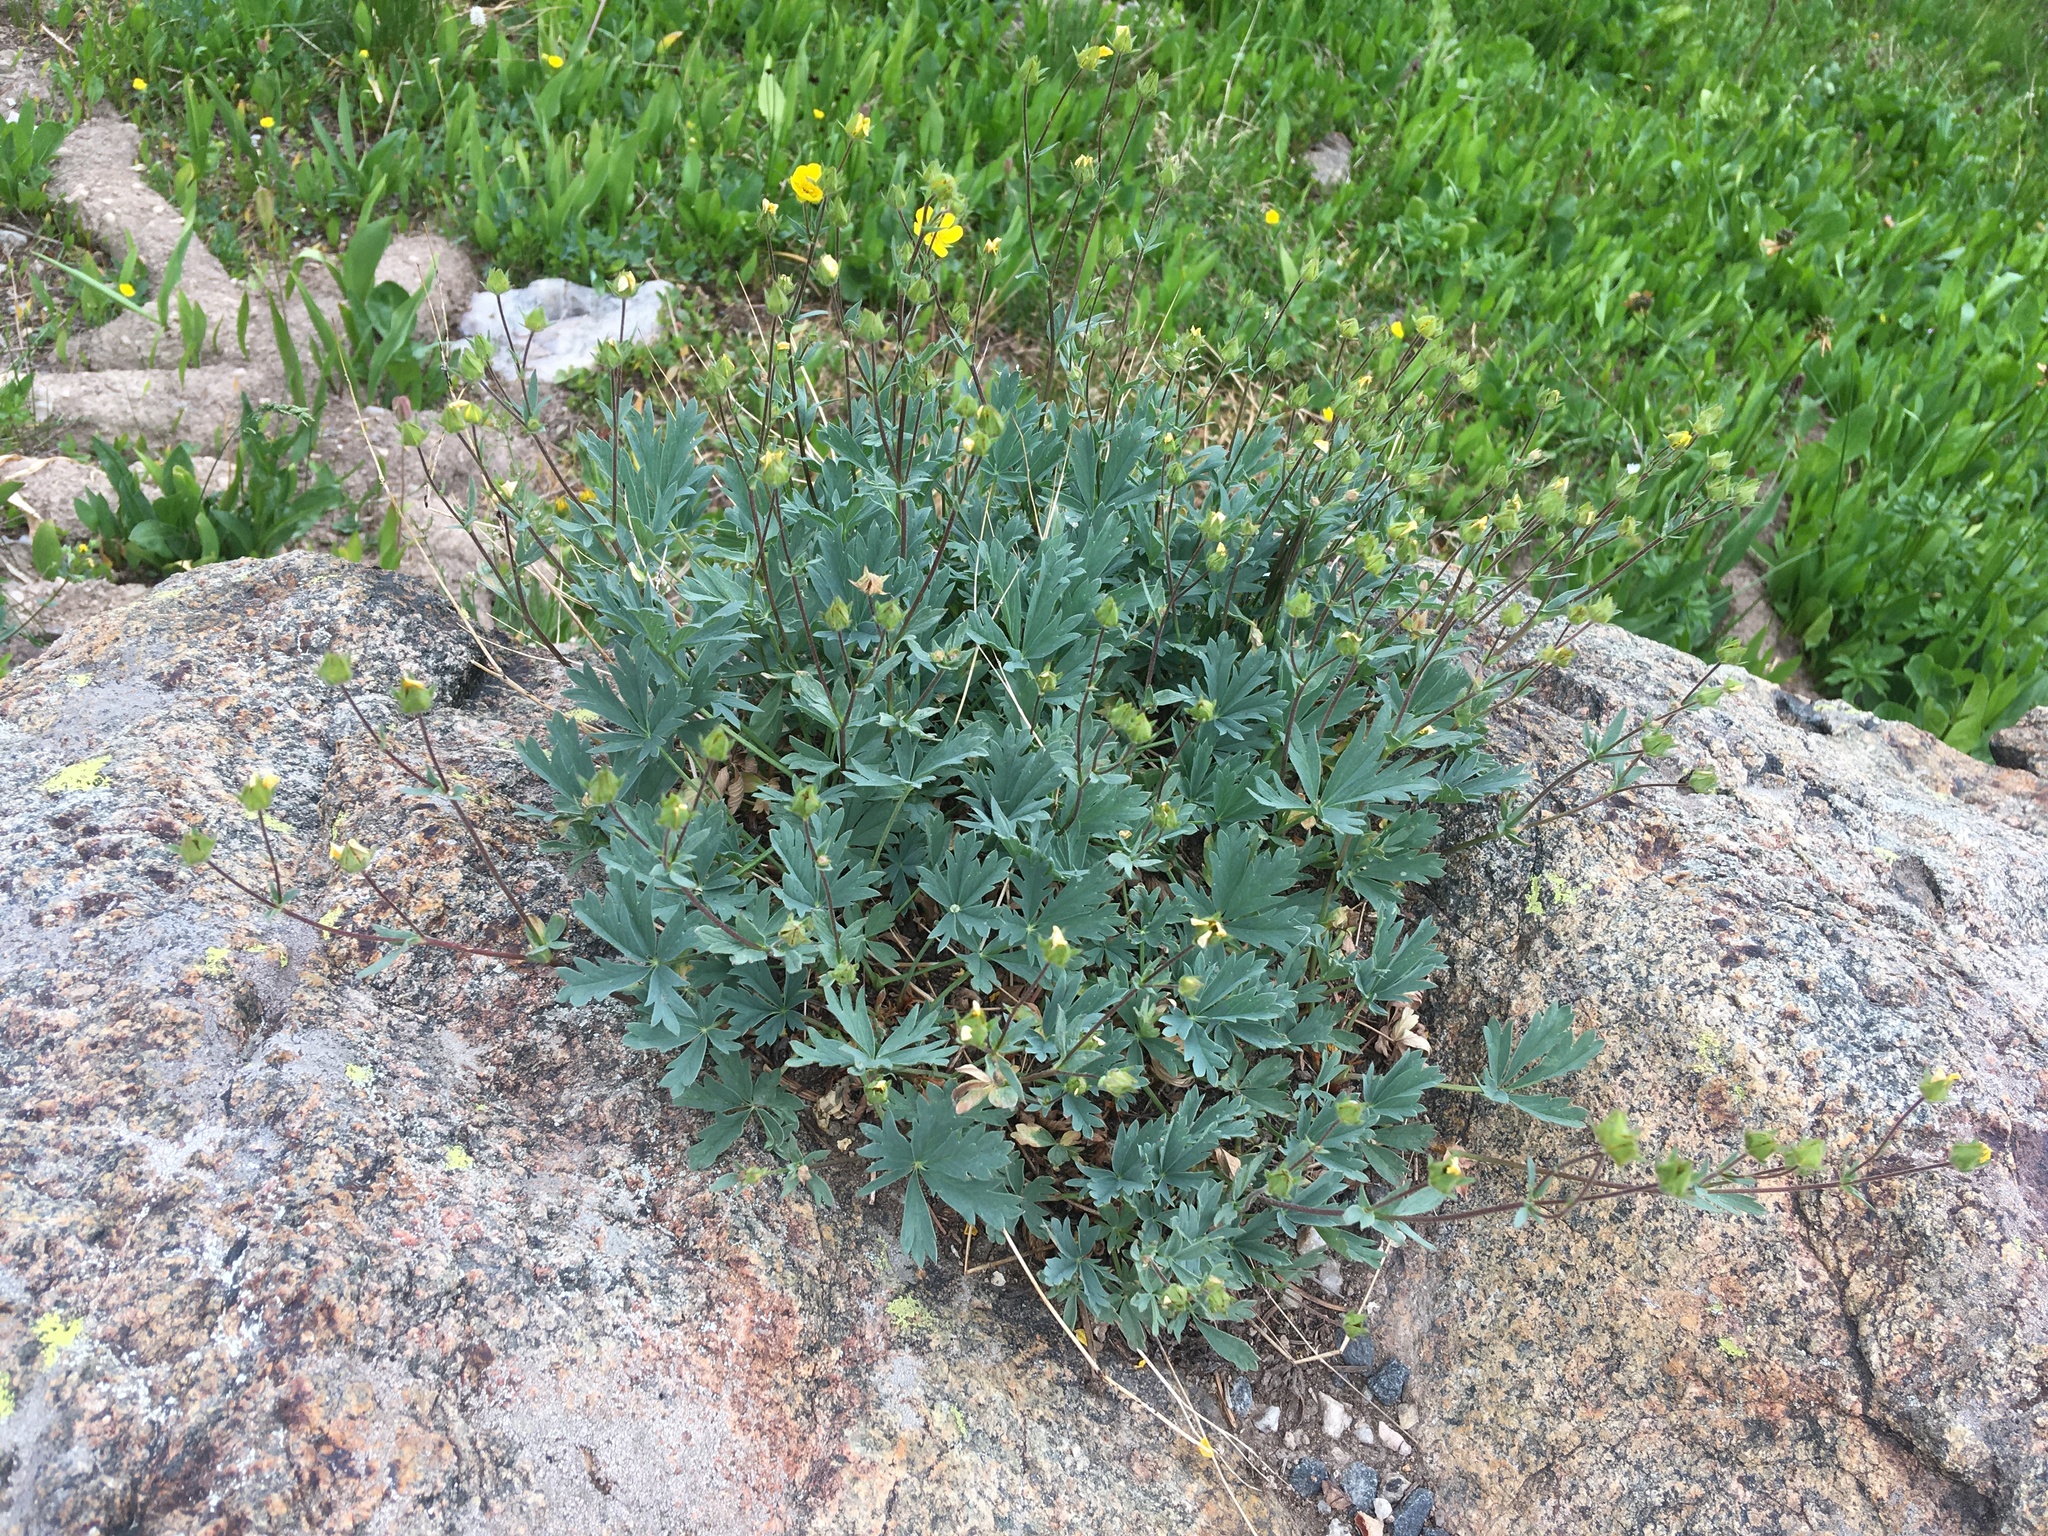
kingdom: Plantae
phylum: Tracheophyta
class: Magnoliopsida
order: Rosales
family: Rosaceae
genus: Potentilla
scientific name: Potentilla glaucophylla
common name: Blue-leaved cinquefoil
